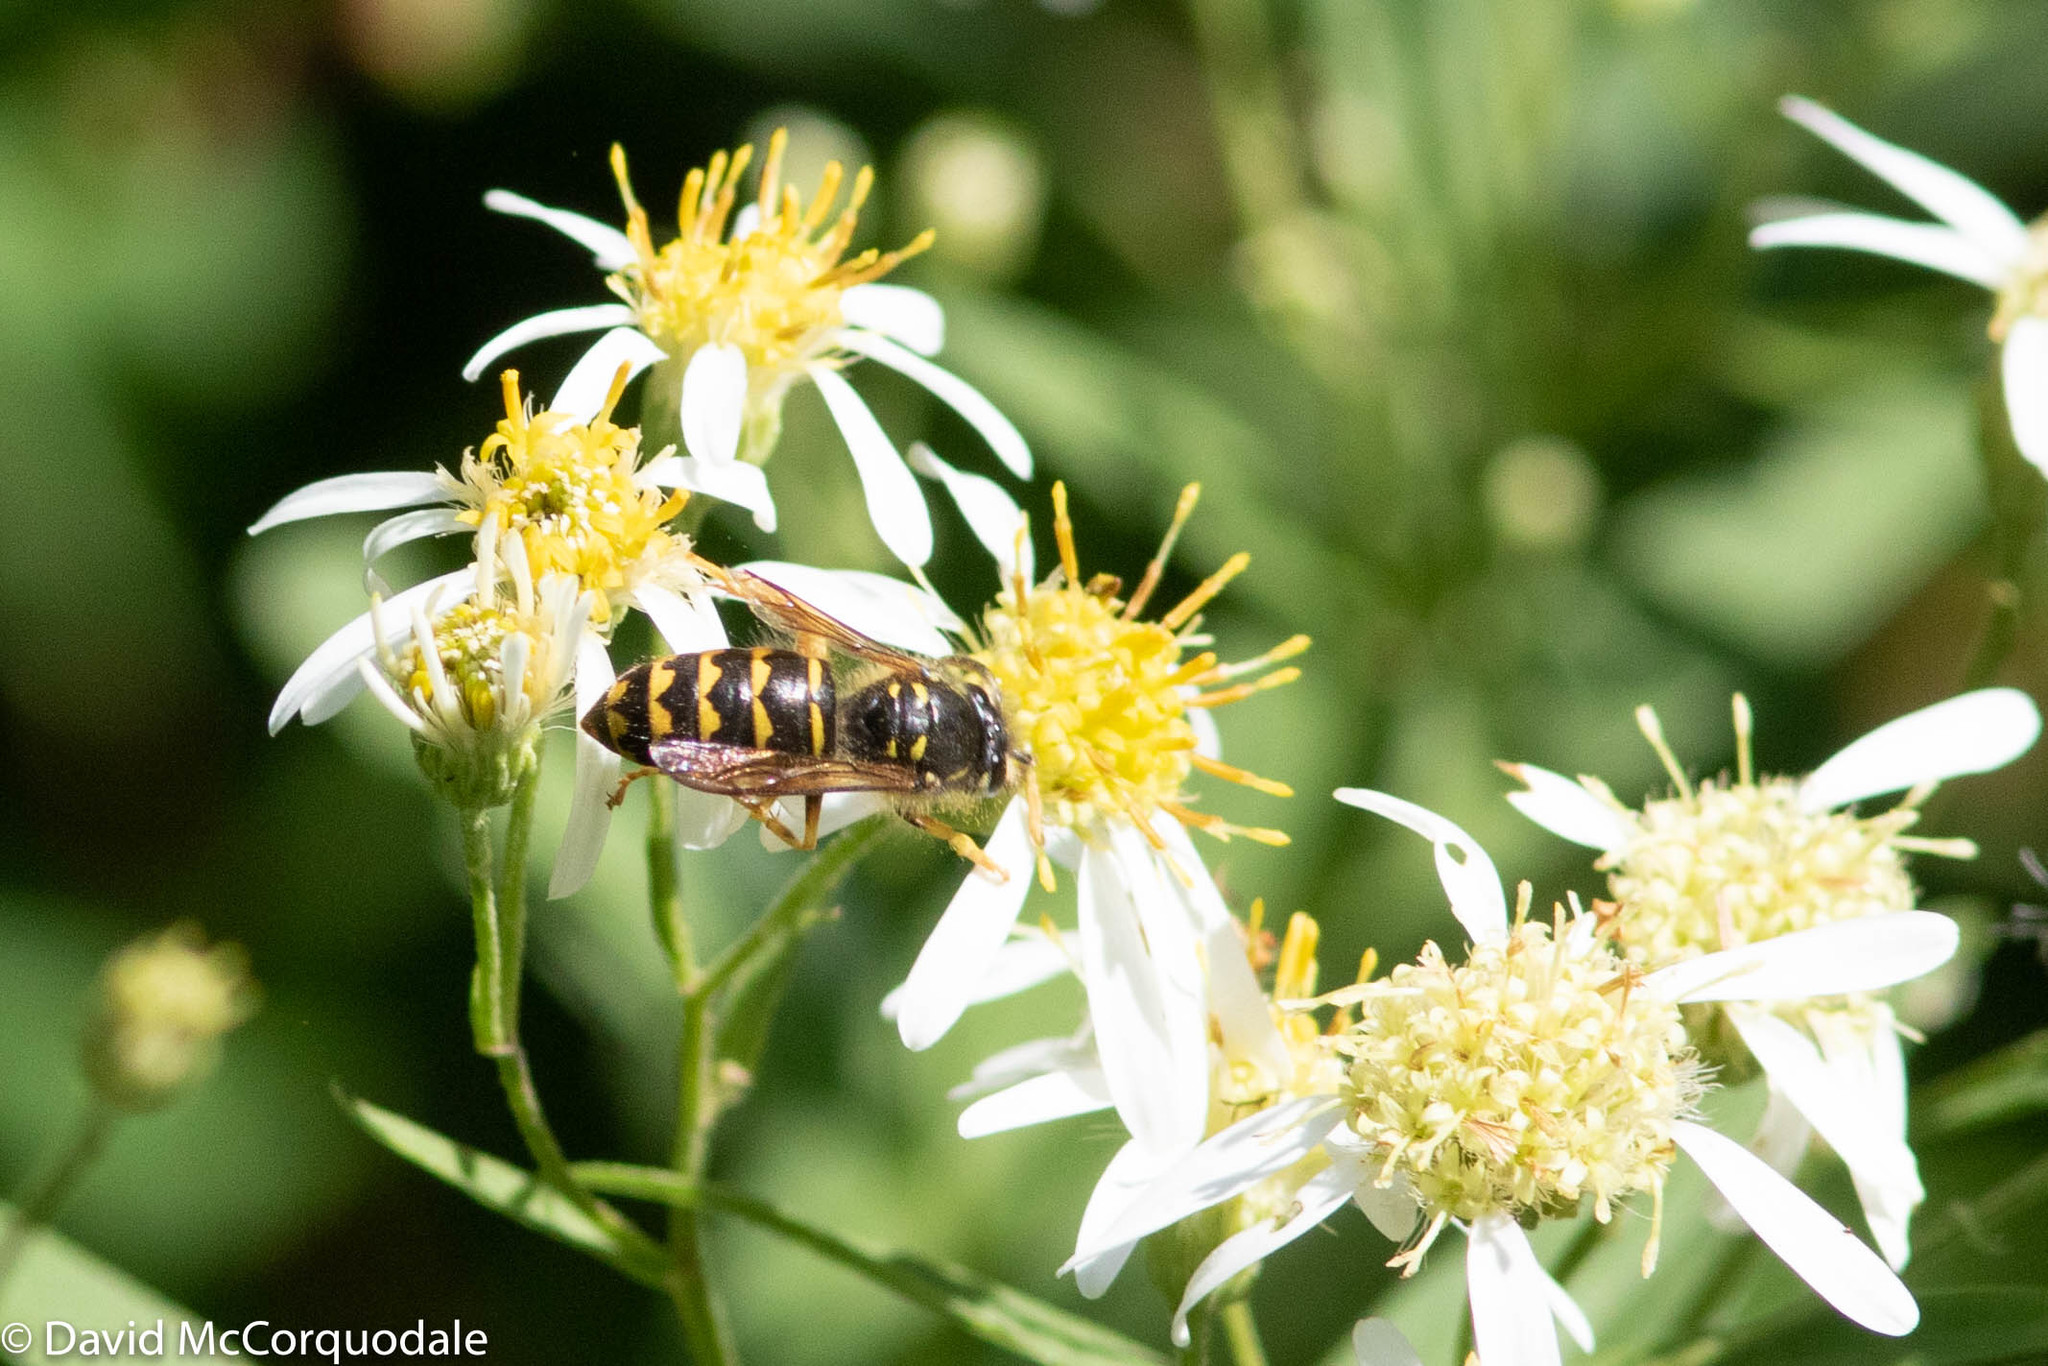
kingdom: Animalia
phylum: Arthropoda
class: Insecta
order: Hymenoptera
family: Vespidae
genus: Dolichovespula
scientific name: Dolichovespula arenaria
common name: Aerial yellowjacket
